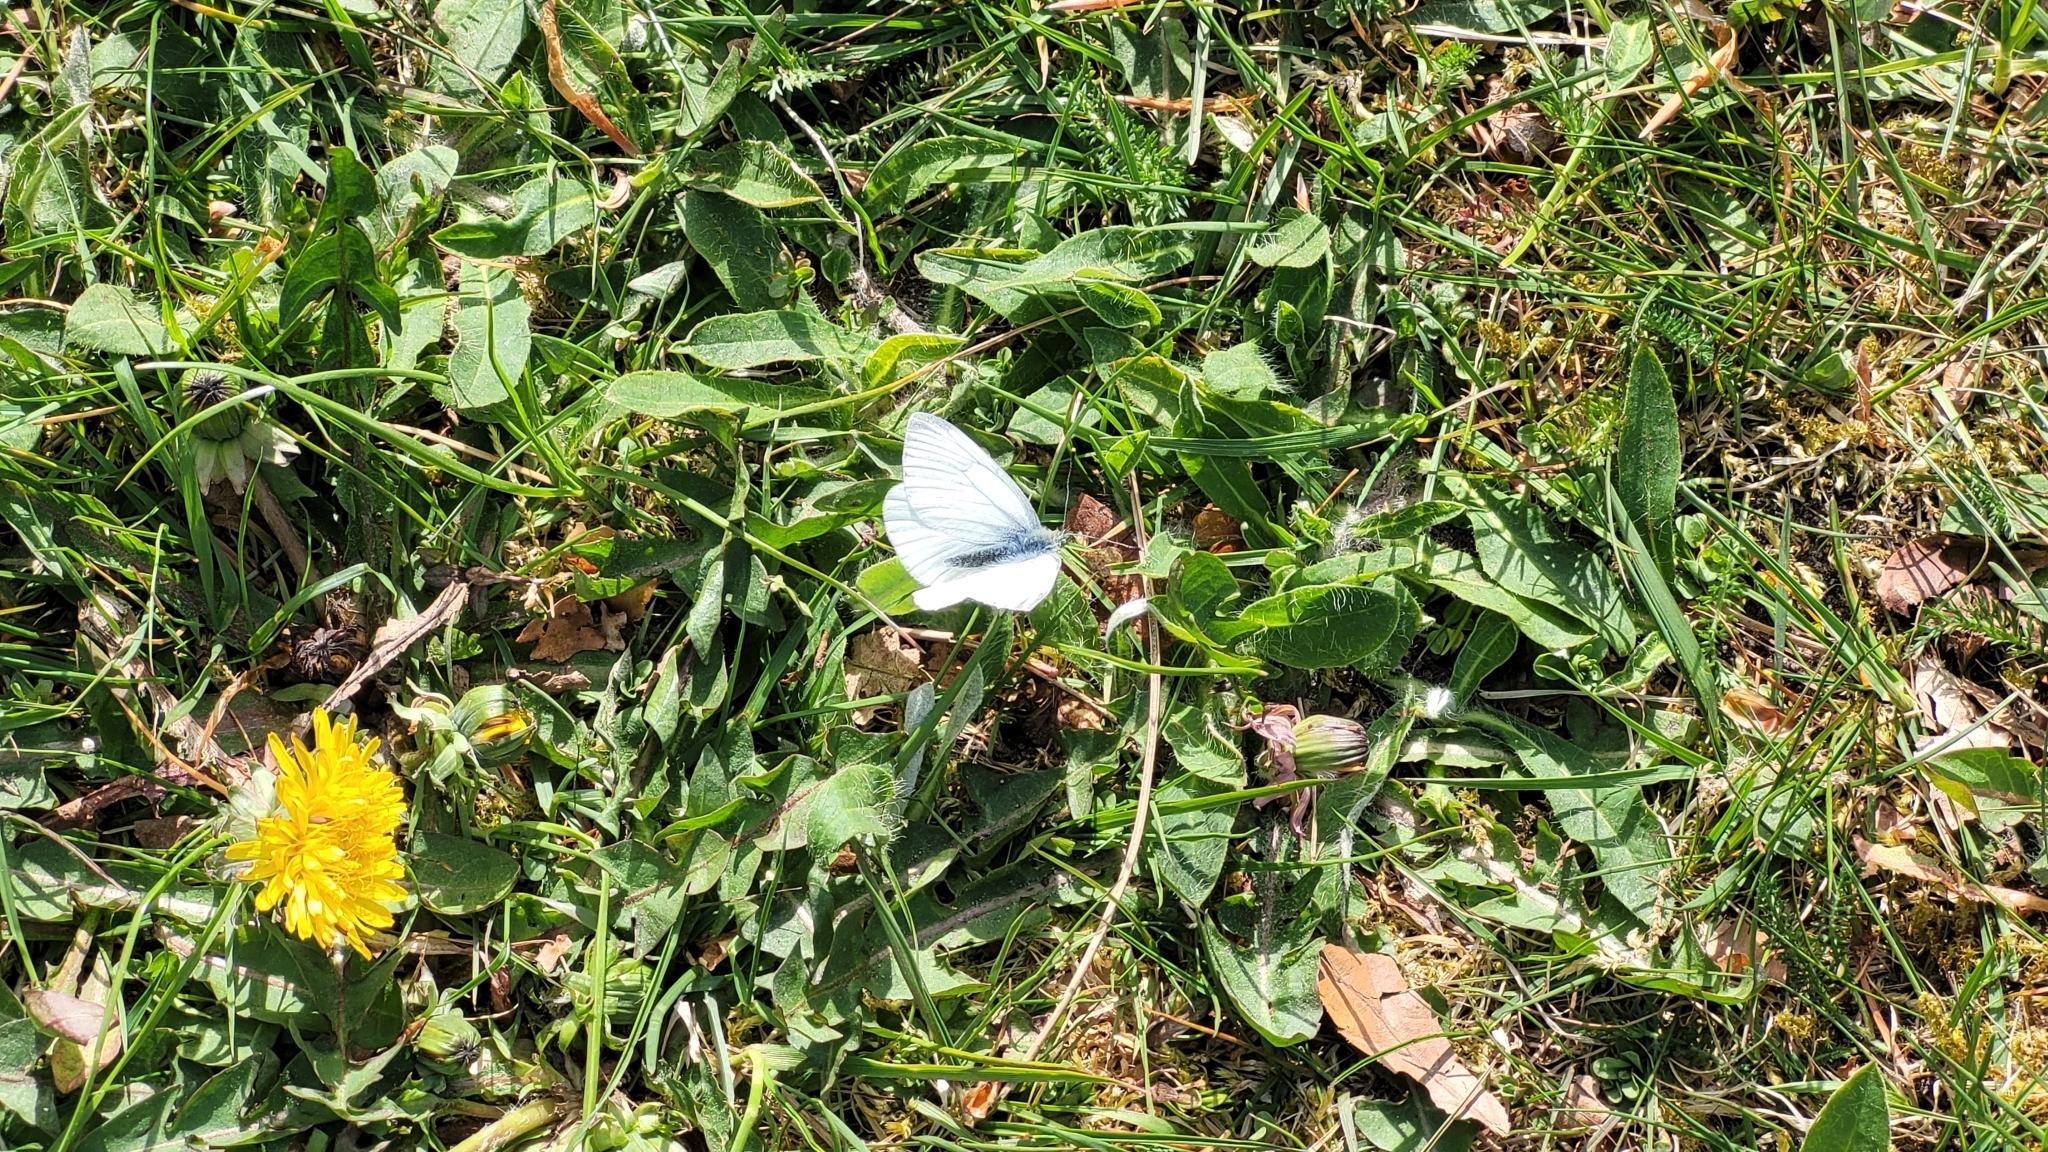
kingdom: Animalia
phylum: Arthropoda
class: Insecta
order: Lepidoptera
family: Pieridae
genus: Pieris
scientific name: Pieris napi
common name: Green-veined white
